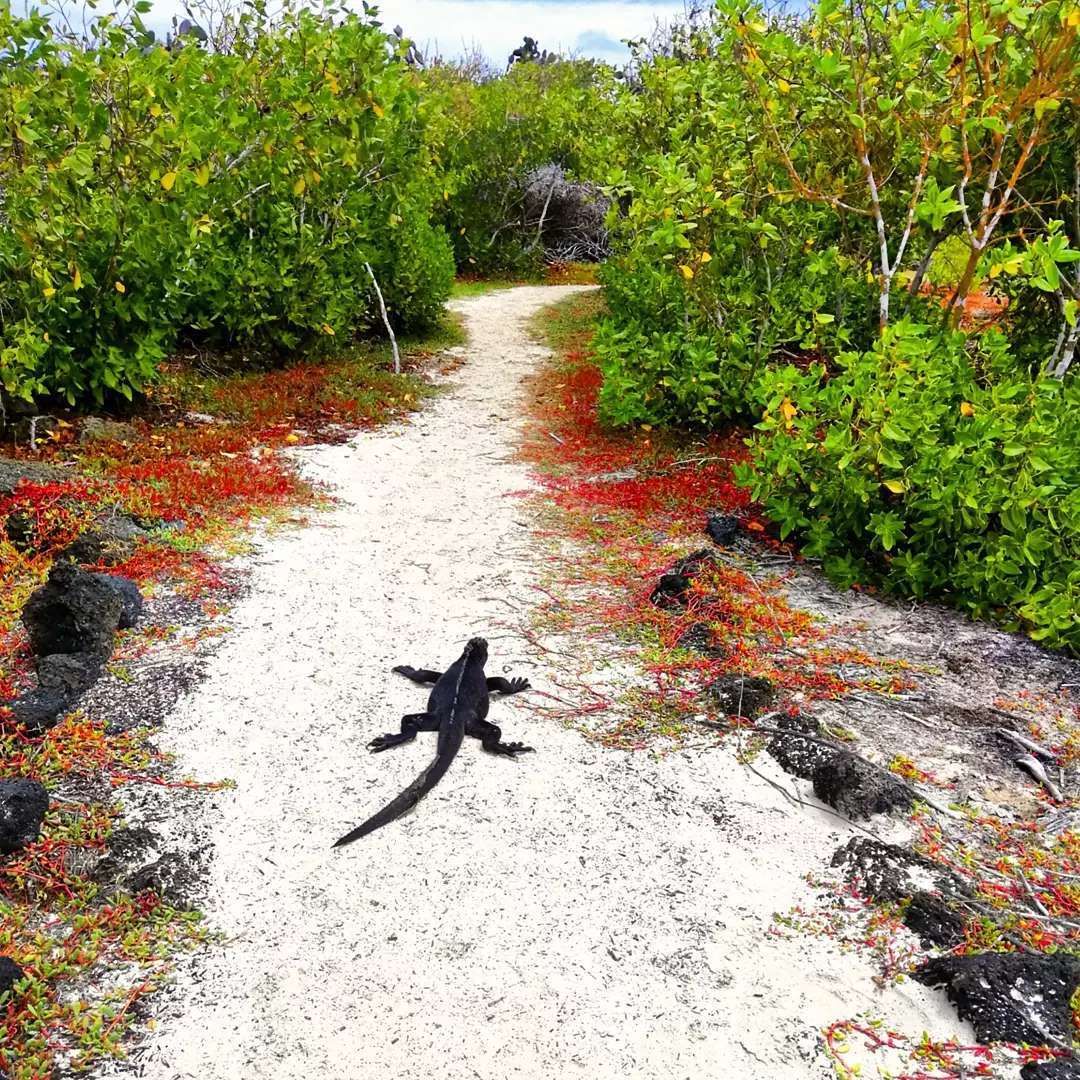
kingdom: Animalia
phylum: Chordata
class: Squamata
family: Iguanidae
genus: Amblyrhynchus
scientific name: Amblyrhynchus cristatus
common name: Marine iguana
